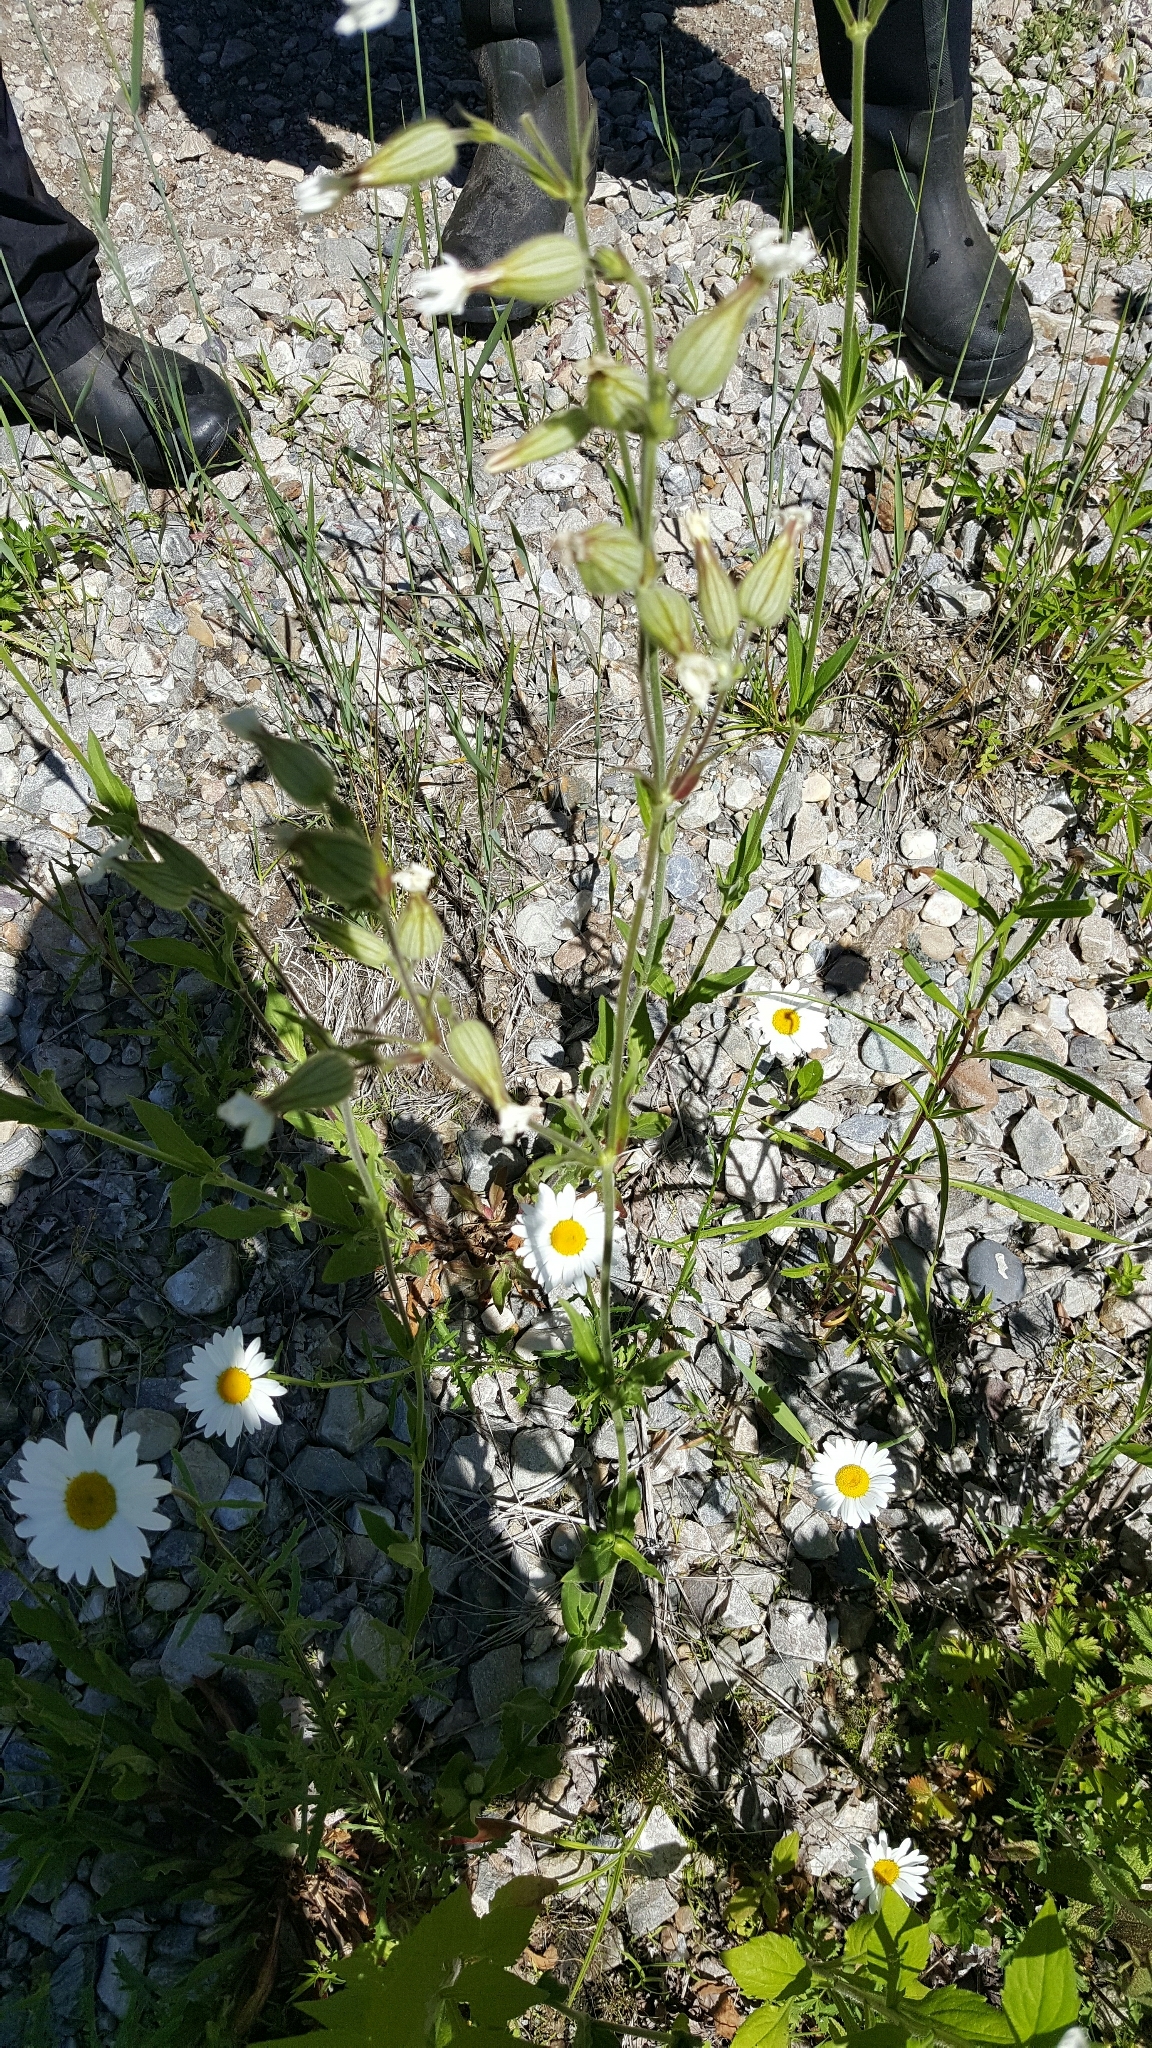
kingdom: Plantae
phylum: Tracheophyta
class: Magnoliopsida
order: Caryophyllales
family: Caryophyllaceae
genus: Silene
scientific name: Silene latifolia
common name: White campion
